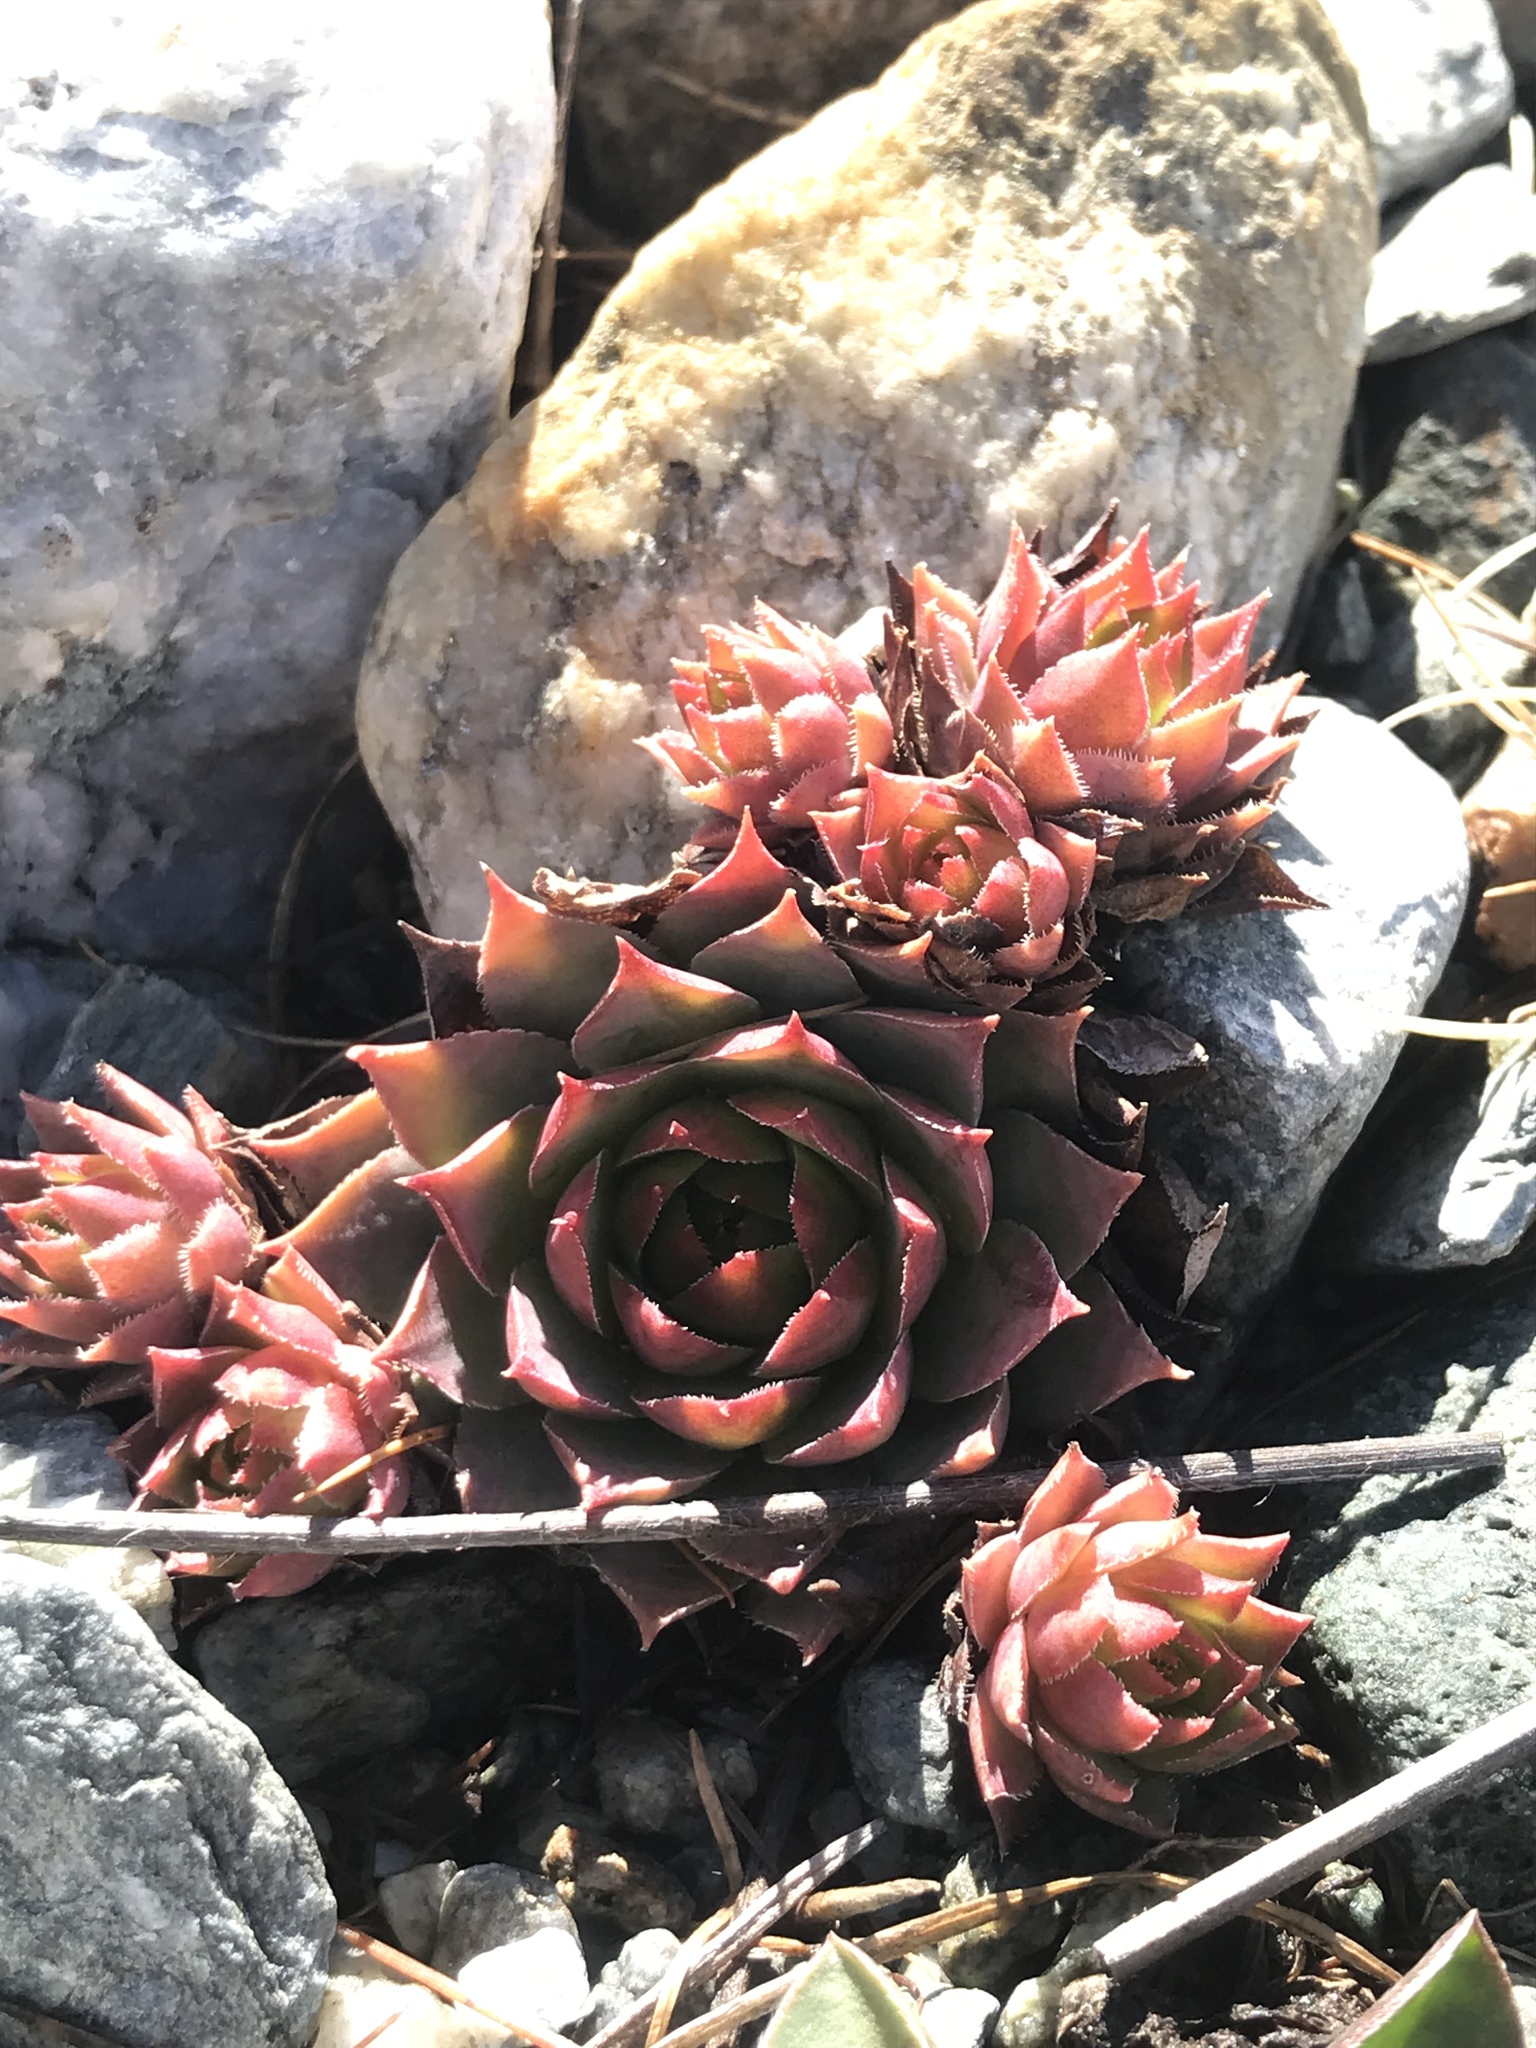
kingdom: Plantae
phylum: Tracheophyta
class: Magnoliopsida
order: Saxifragales
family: Crassulaceae
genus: Sempervivum
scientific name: Sempervivum tectorum
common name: House-leek
